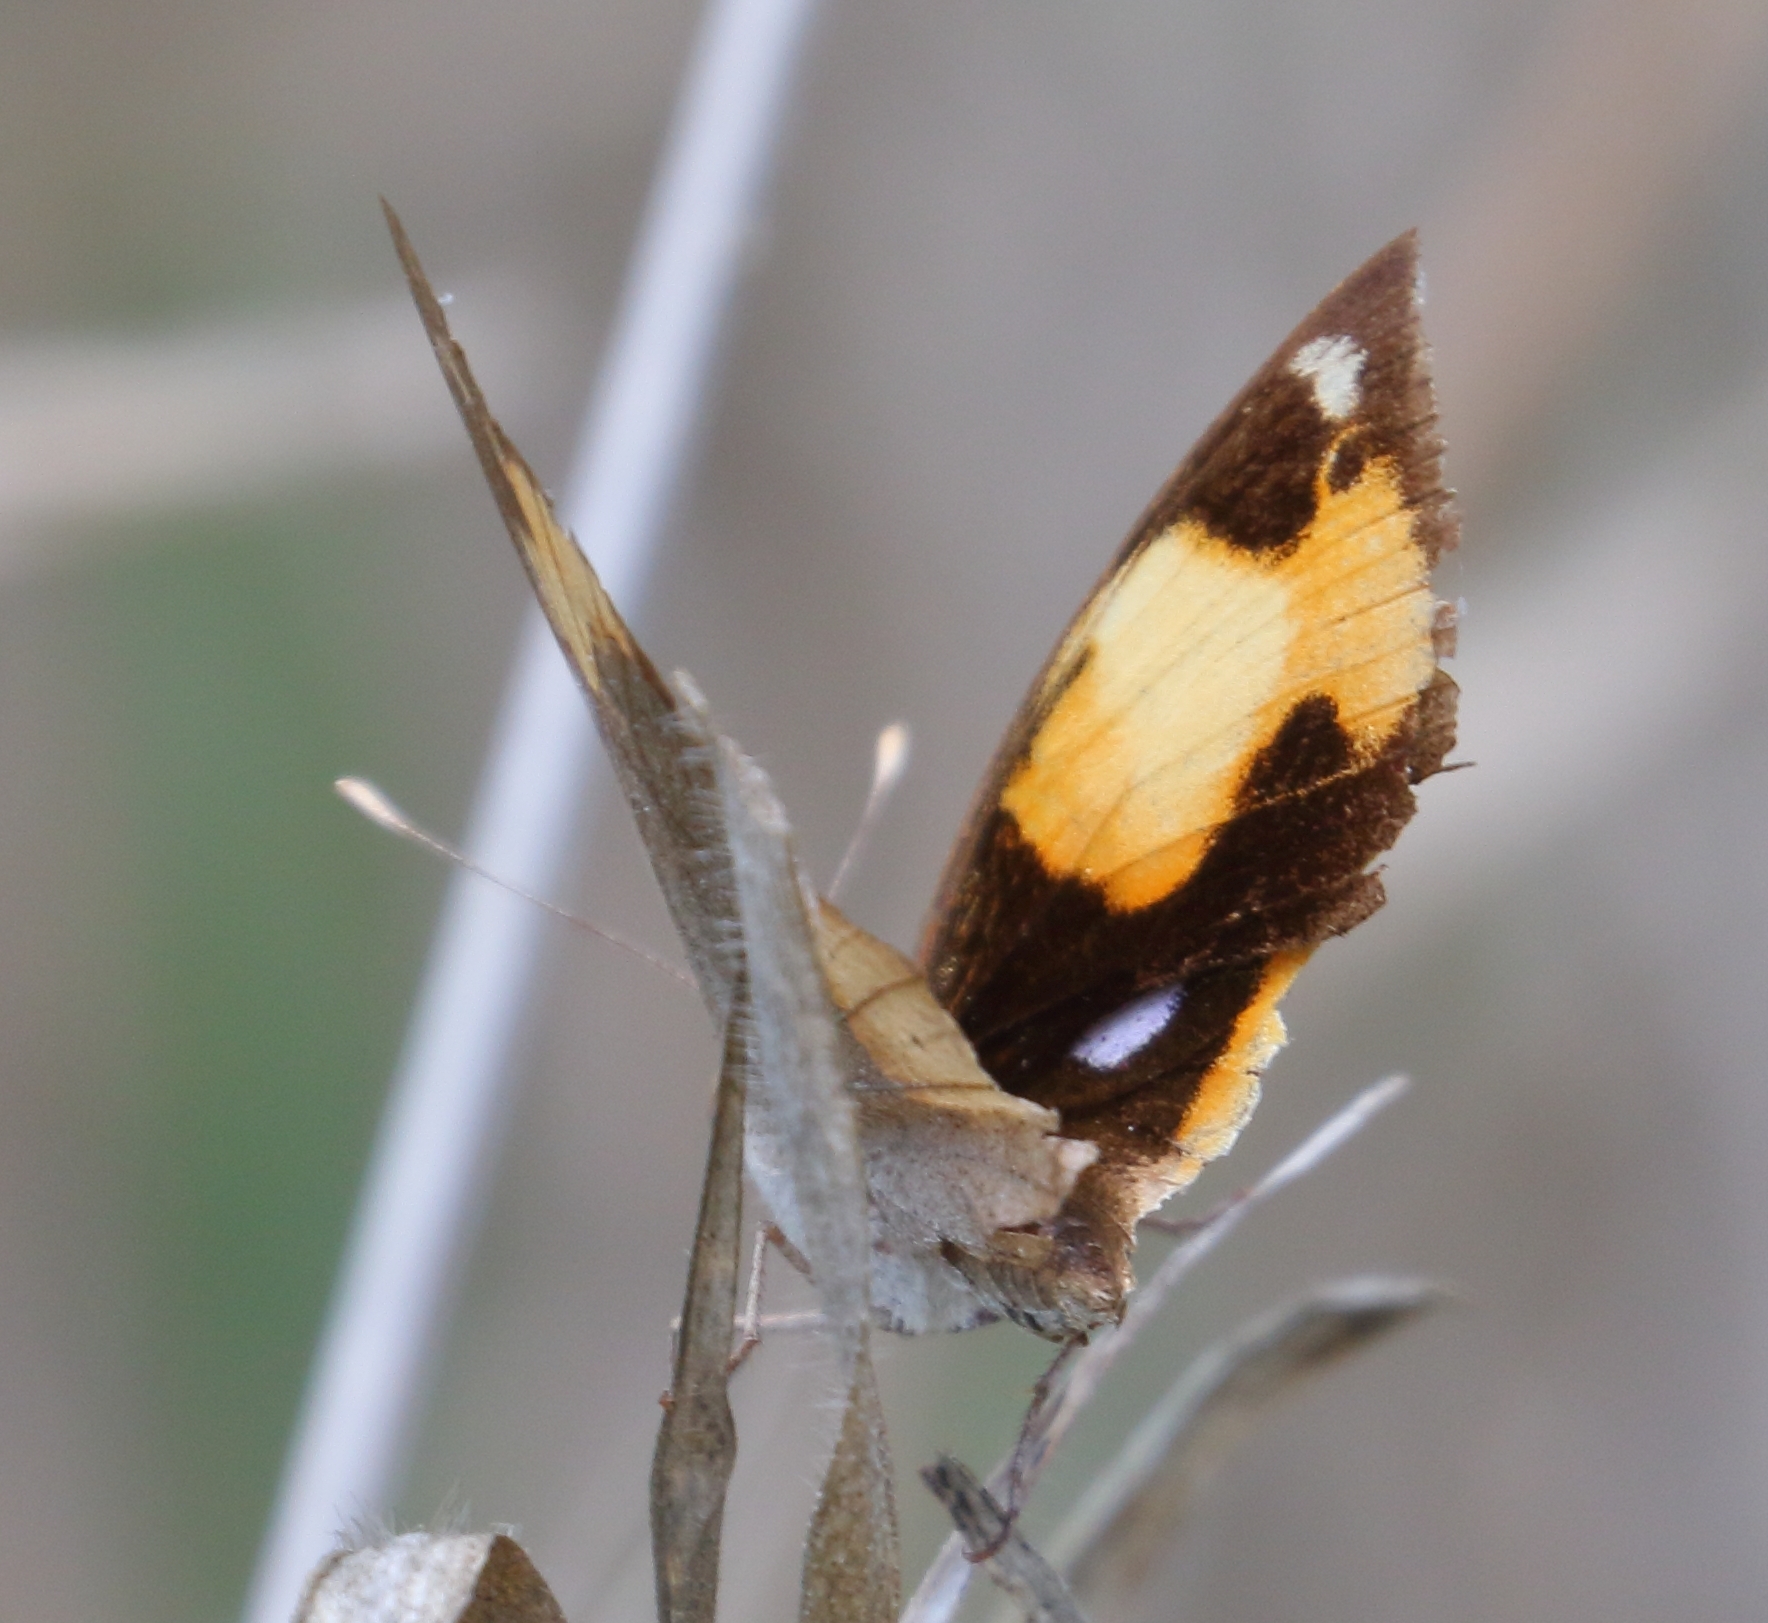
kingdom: Animalia
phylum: Arthropoda
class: Insecta
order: Lepidoptera
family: Nymphalidae
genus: Junonia
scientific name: Junonia hierta
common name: Yellow pansy
